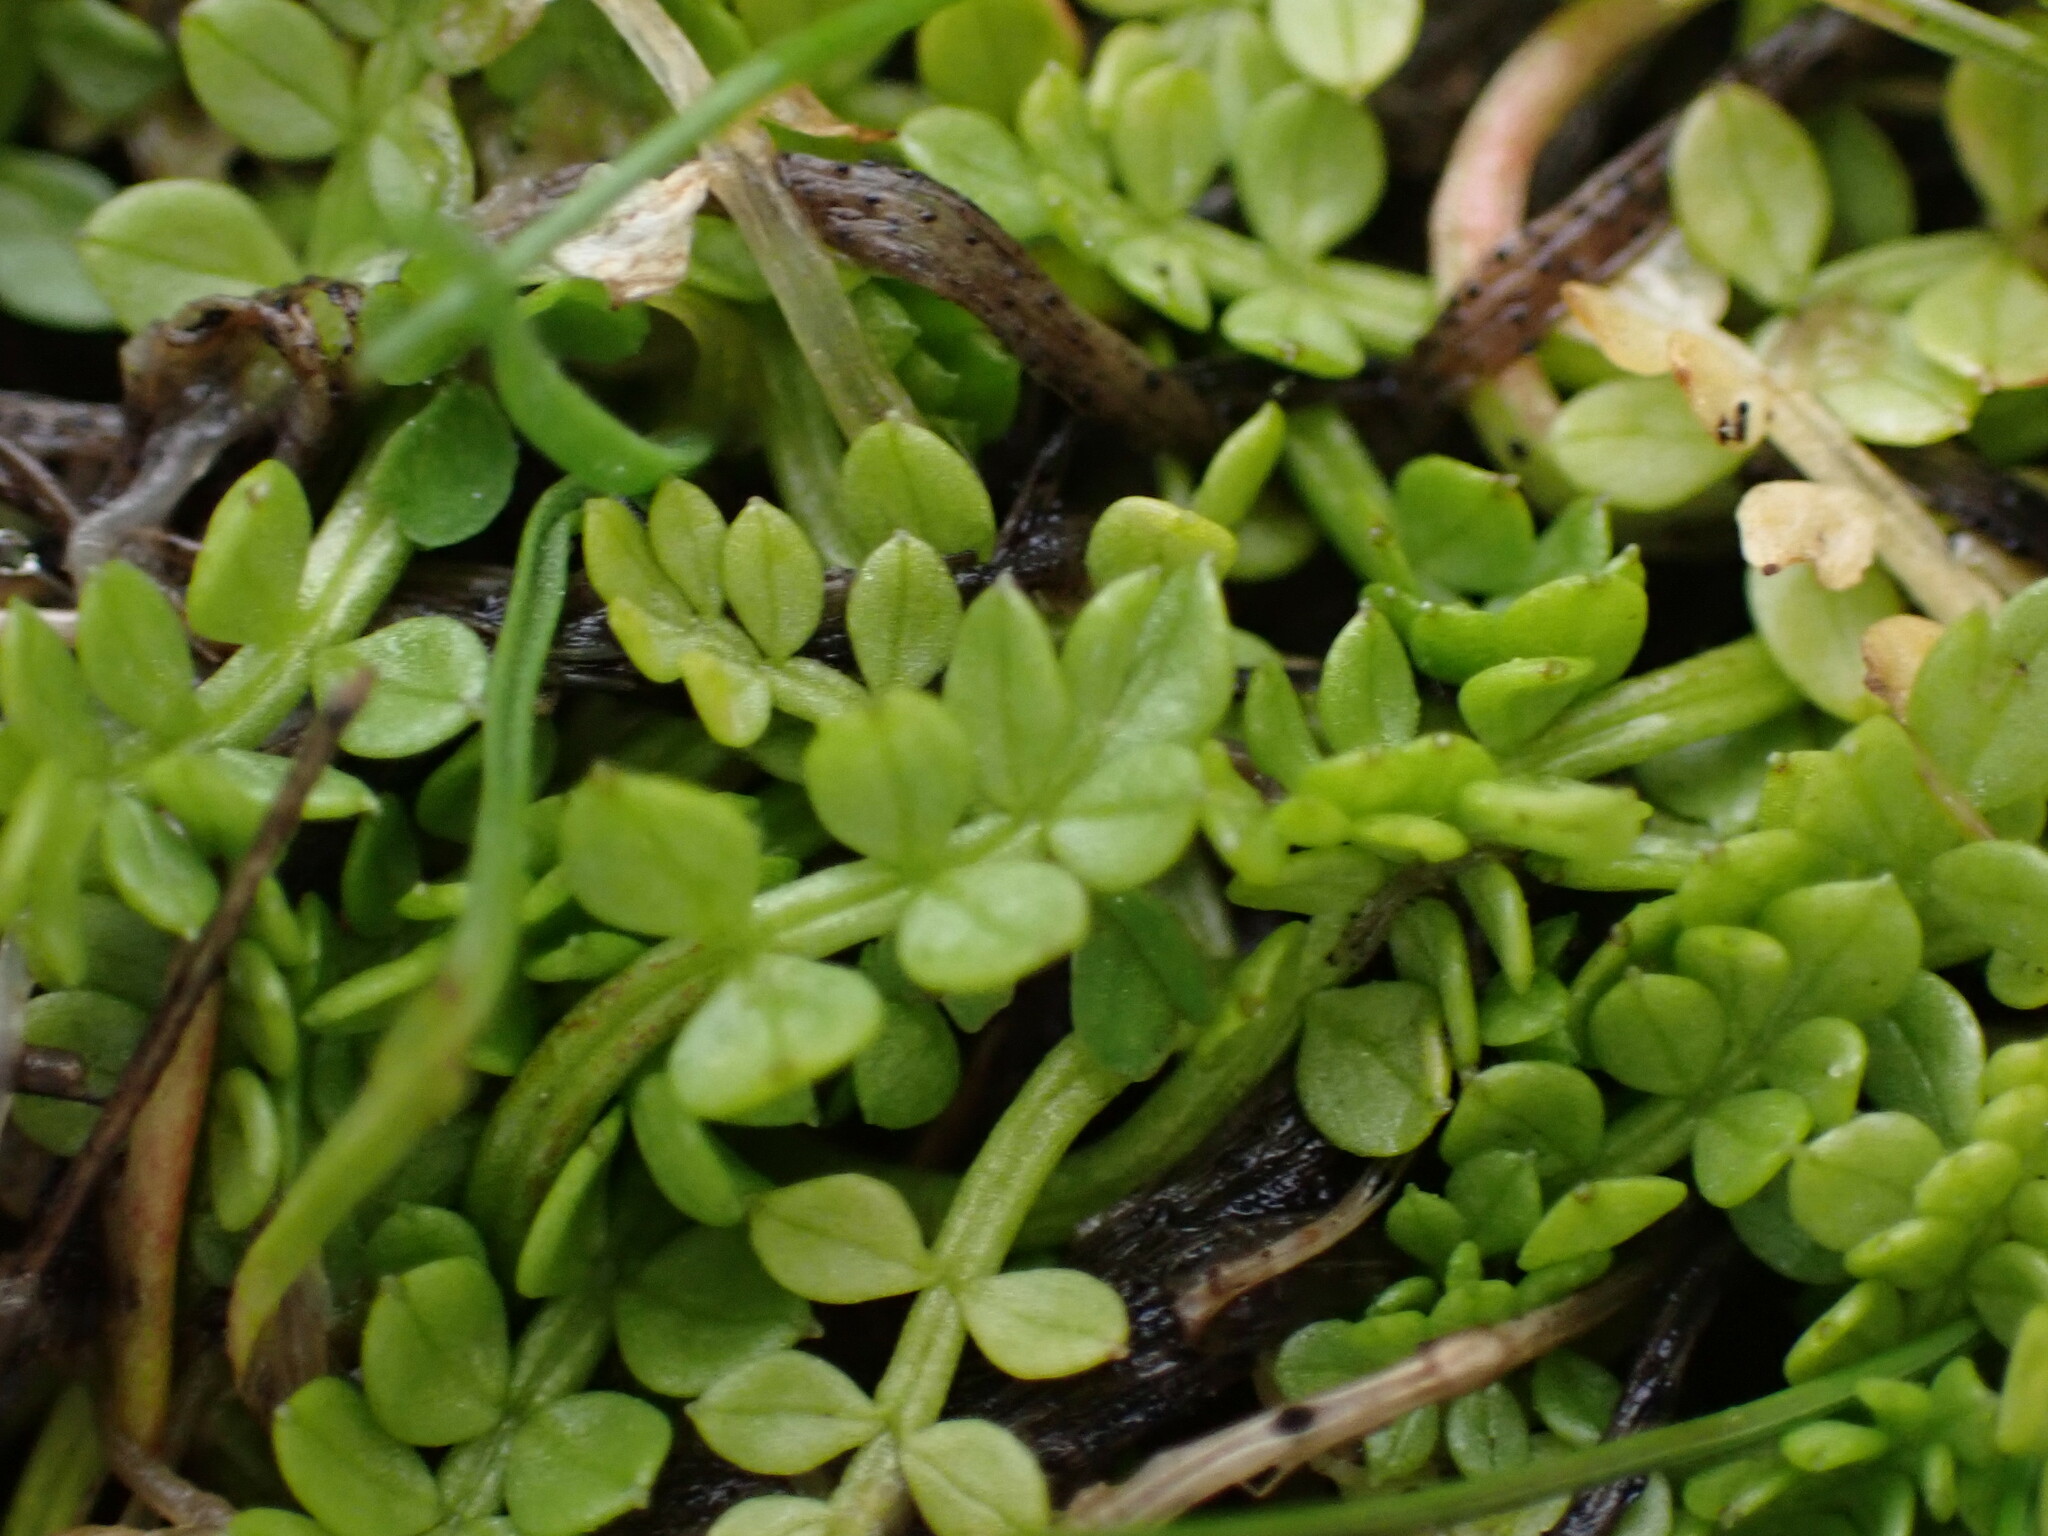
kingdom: Plantae
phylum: Tracheophyta
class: Magnoliopsida
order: Brassicales
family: Limnanthaceae
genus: Limnanthes
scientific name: Limnanthes macounii
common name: Macoun's meadowfoam
